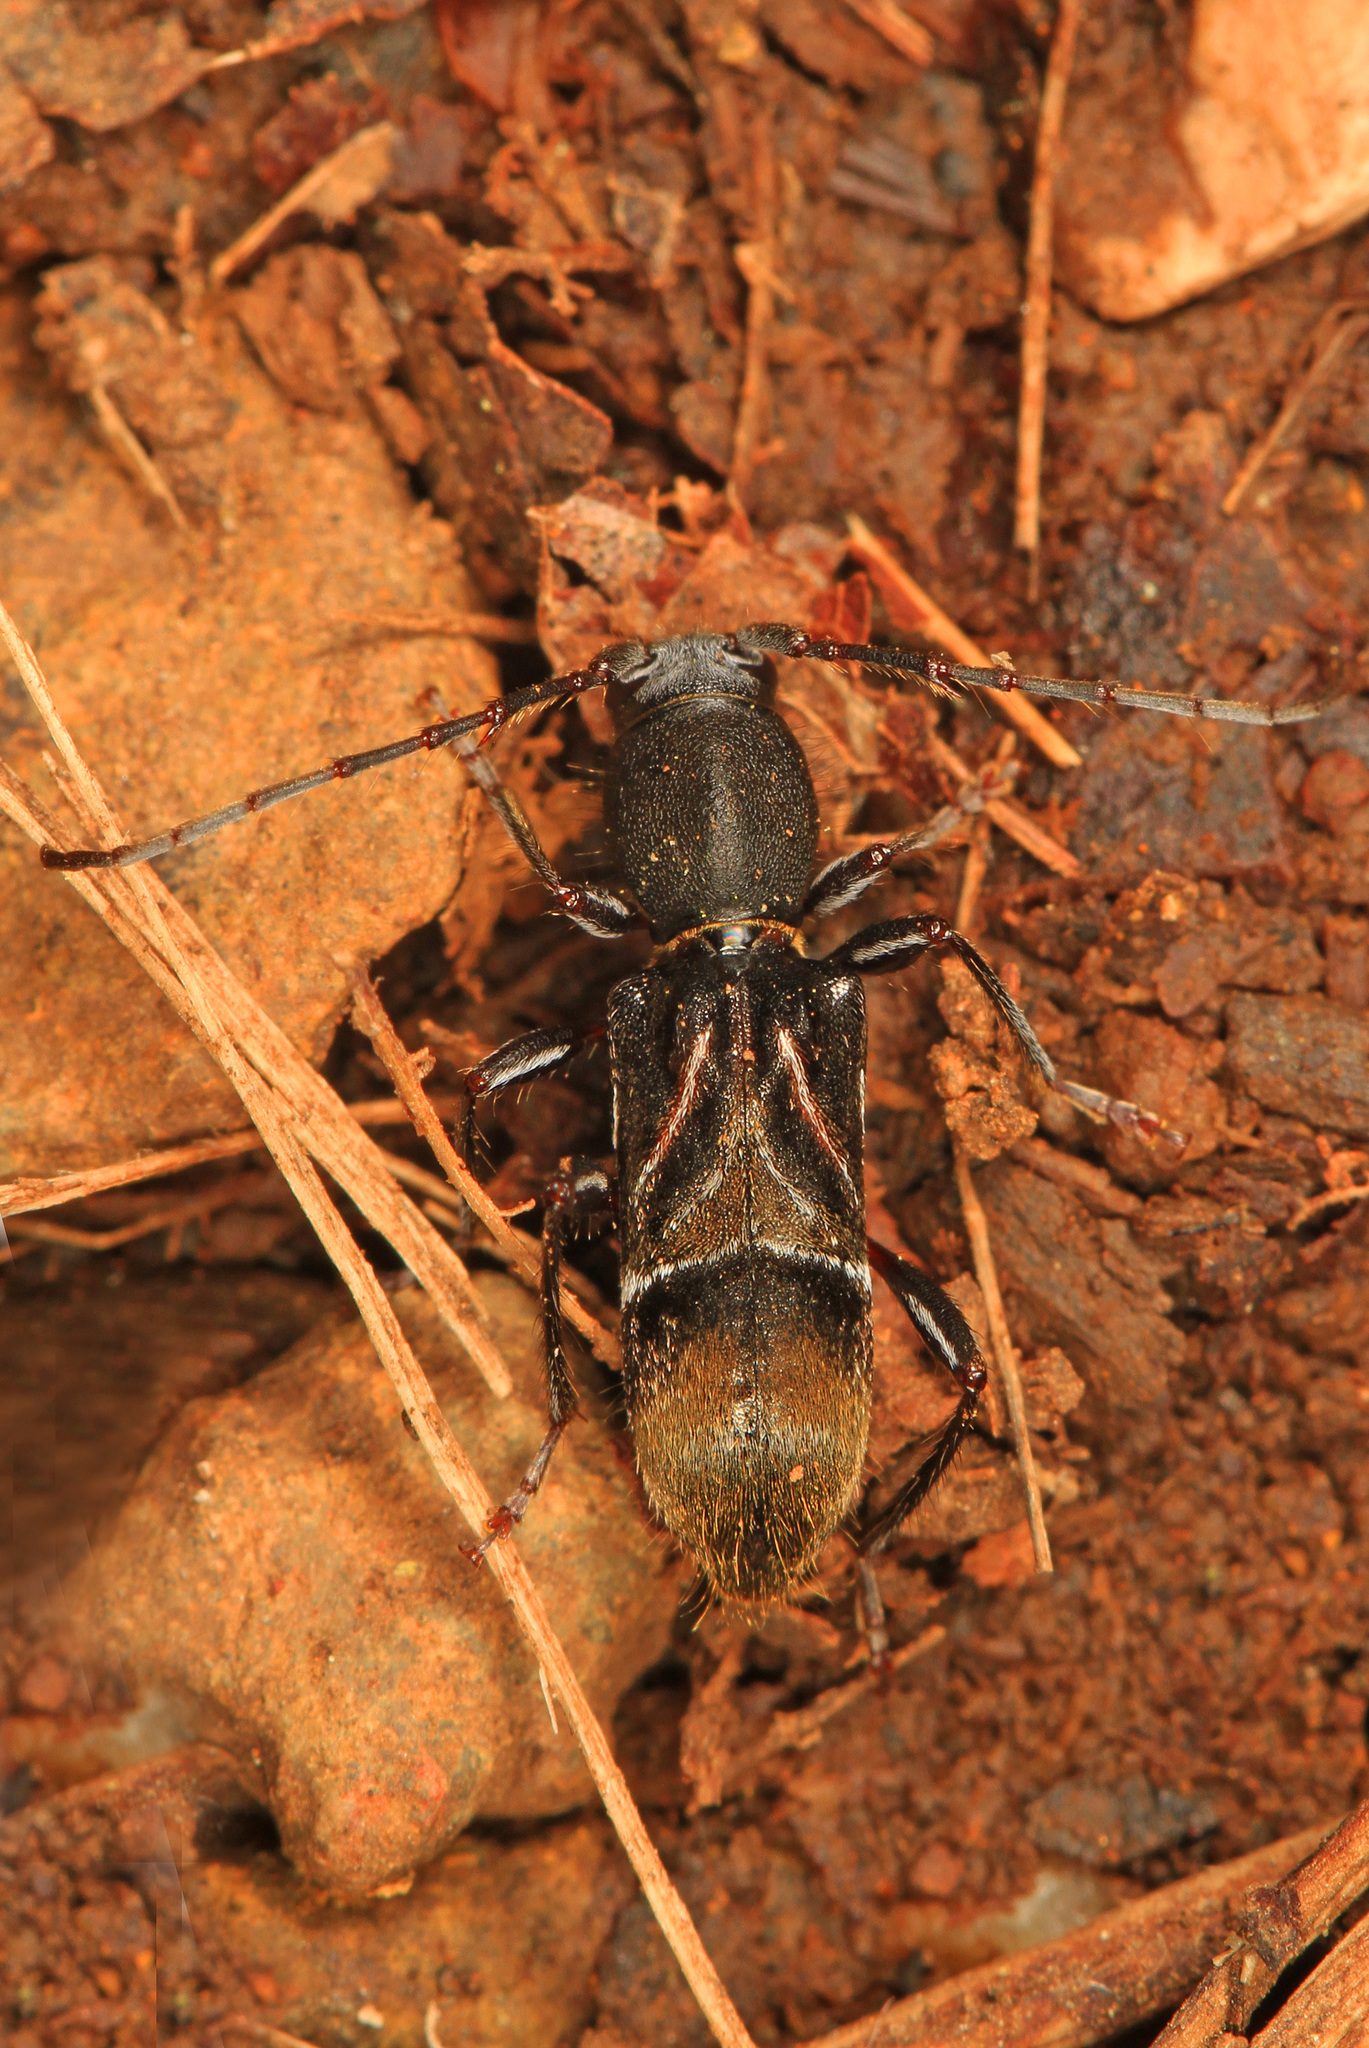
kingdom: Animalia
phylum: Arthropoda
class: Insecta
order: Coleoptera
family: Cerambycidae
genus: Cyrtophorus
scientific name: Cyrtophorus verrucosus
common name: Ant-like longhorn beetle
